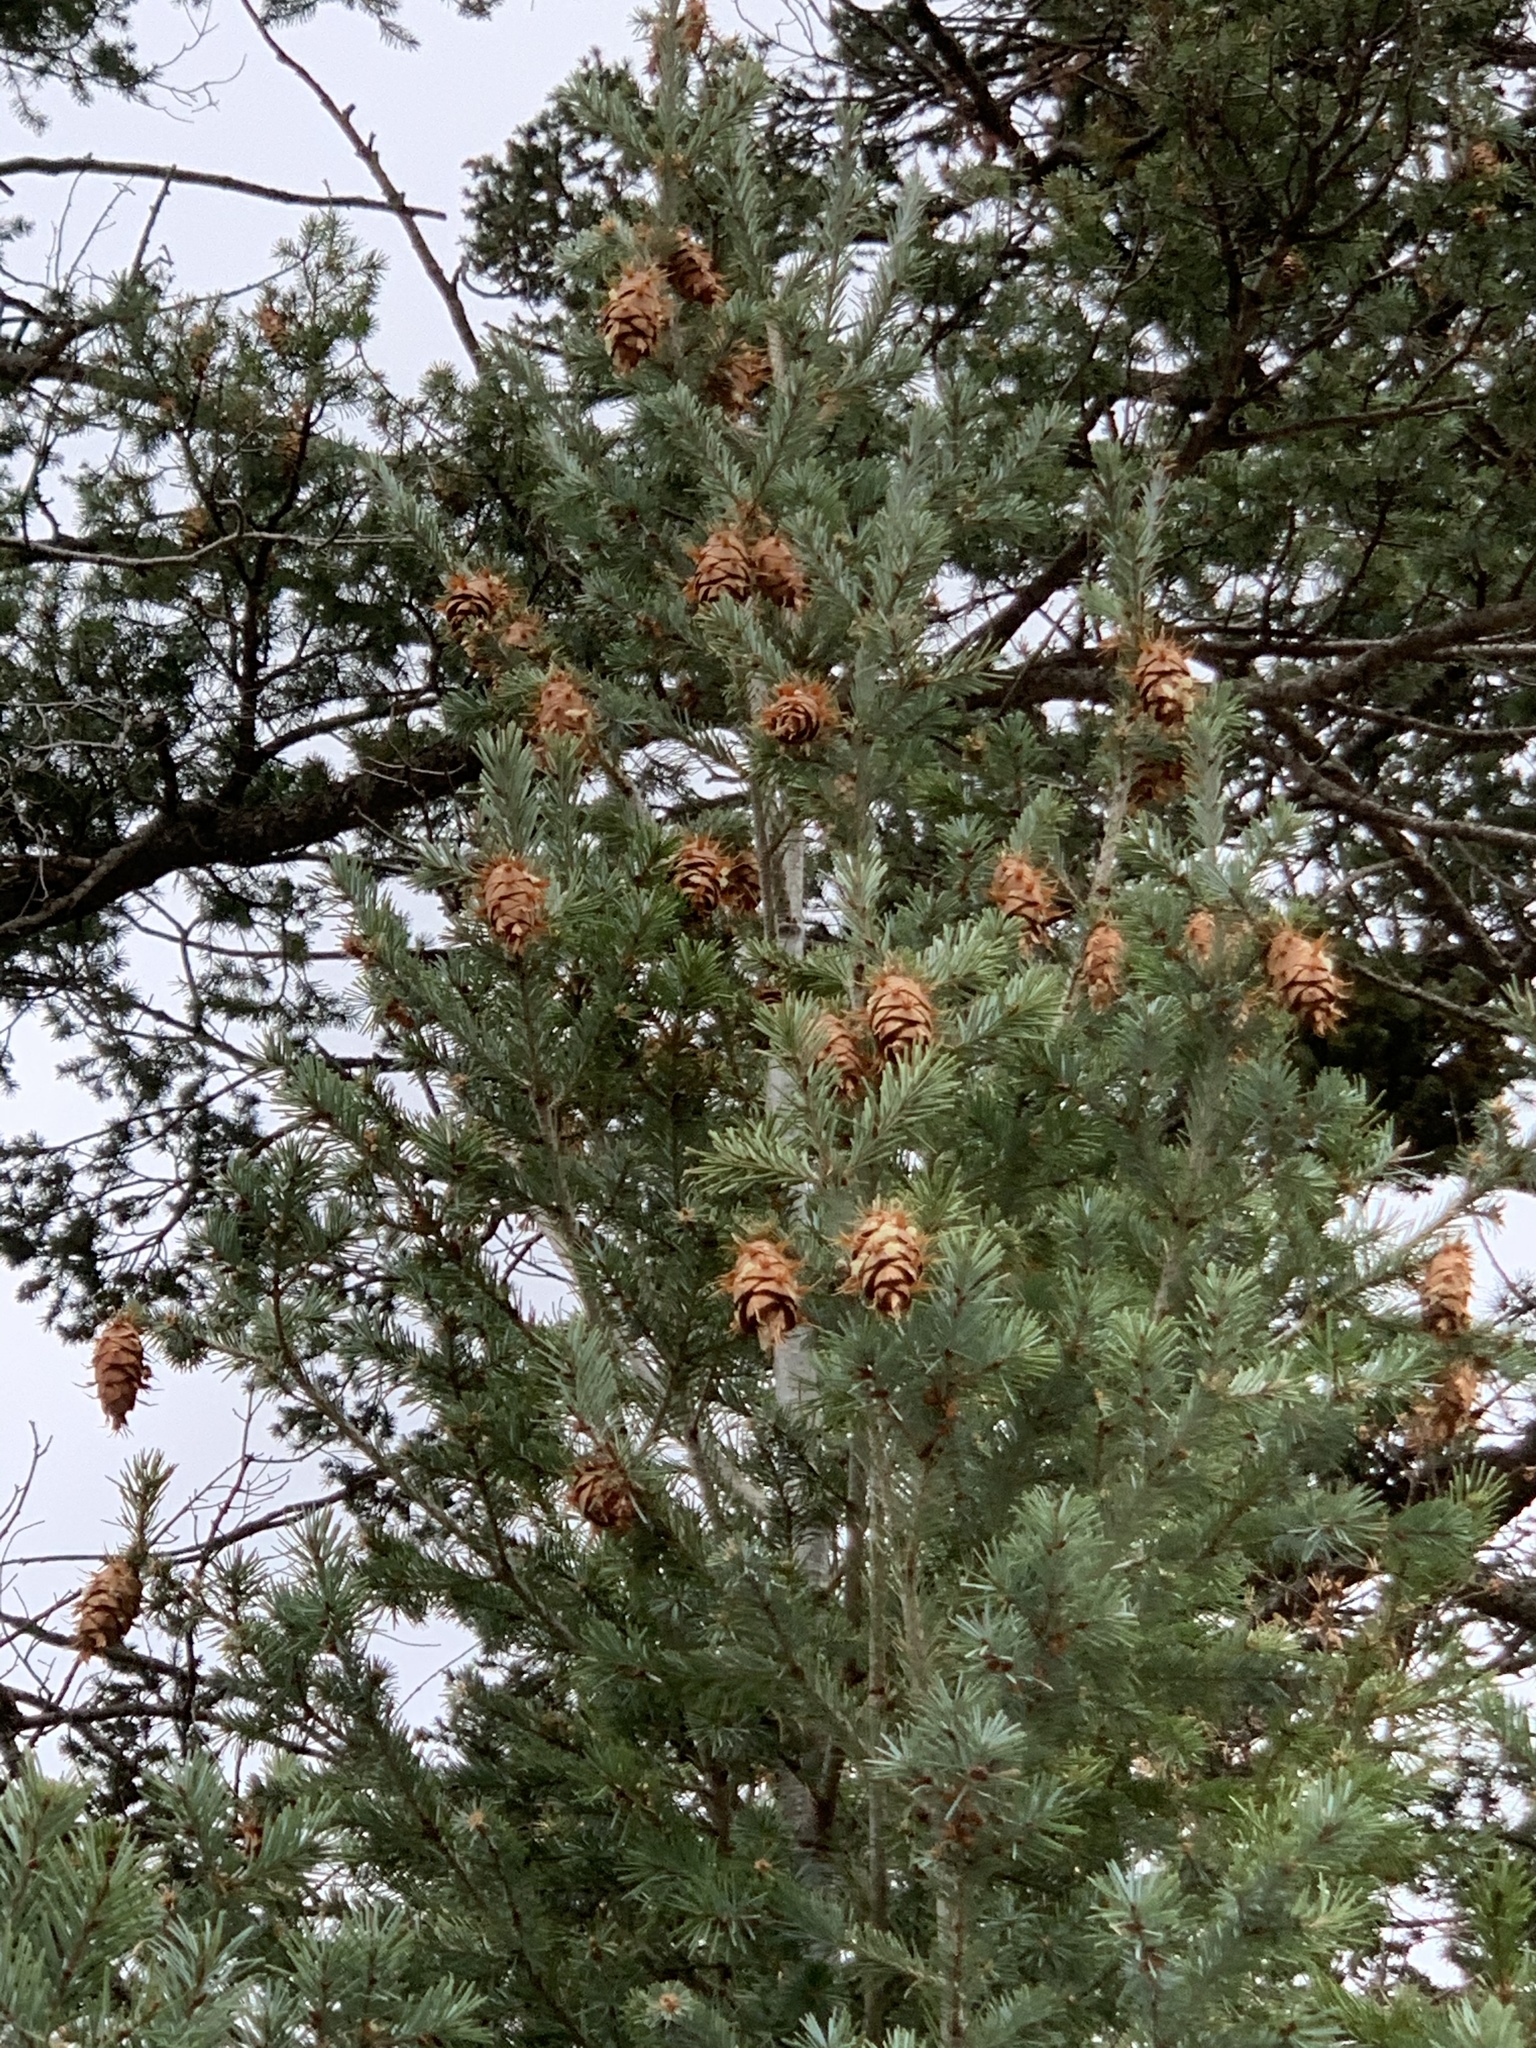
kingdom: Plantae
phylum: Tracheophyta
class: Pinopsida
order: Pinales
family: Pinaceae
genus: Pseudotsuga
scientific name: Pseudotsuga menziesii
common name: Douglas fir
